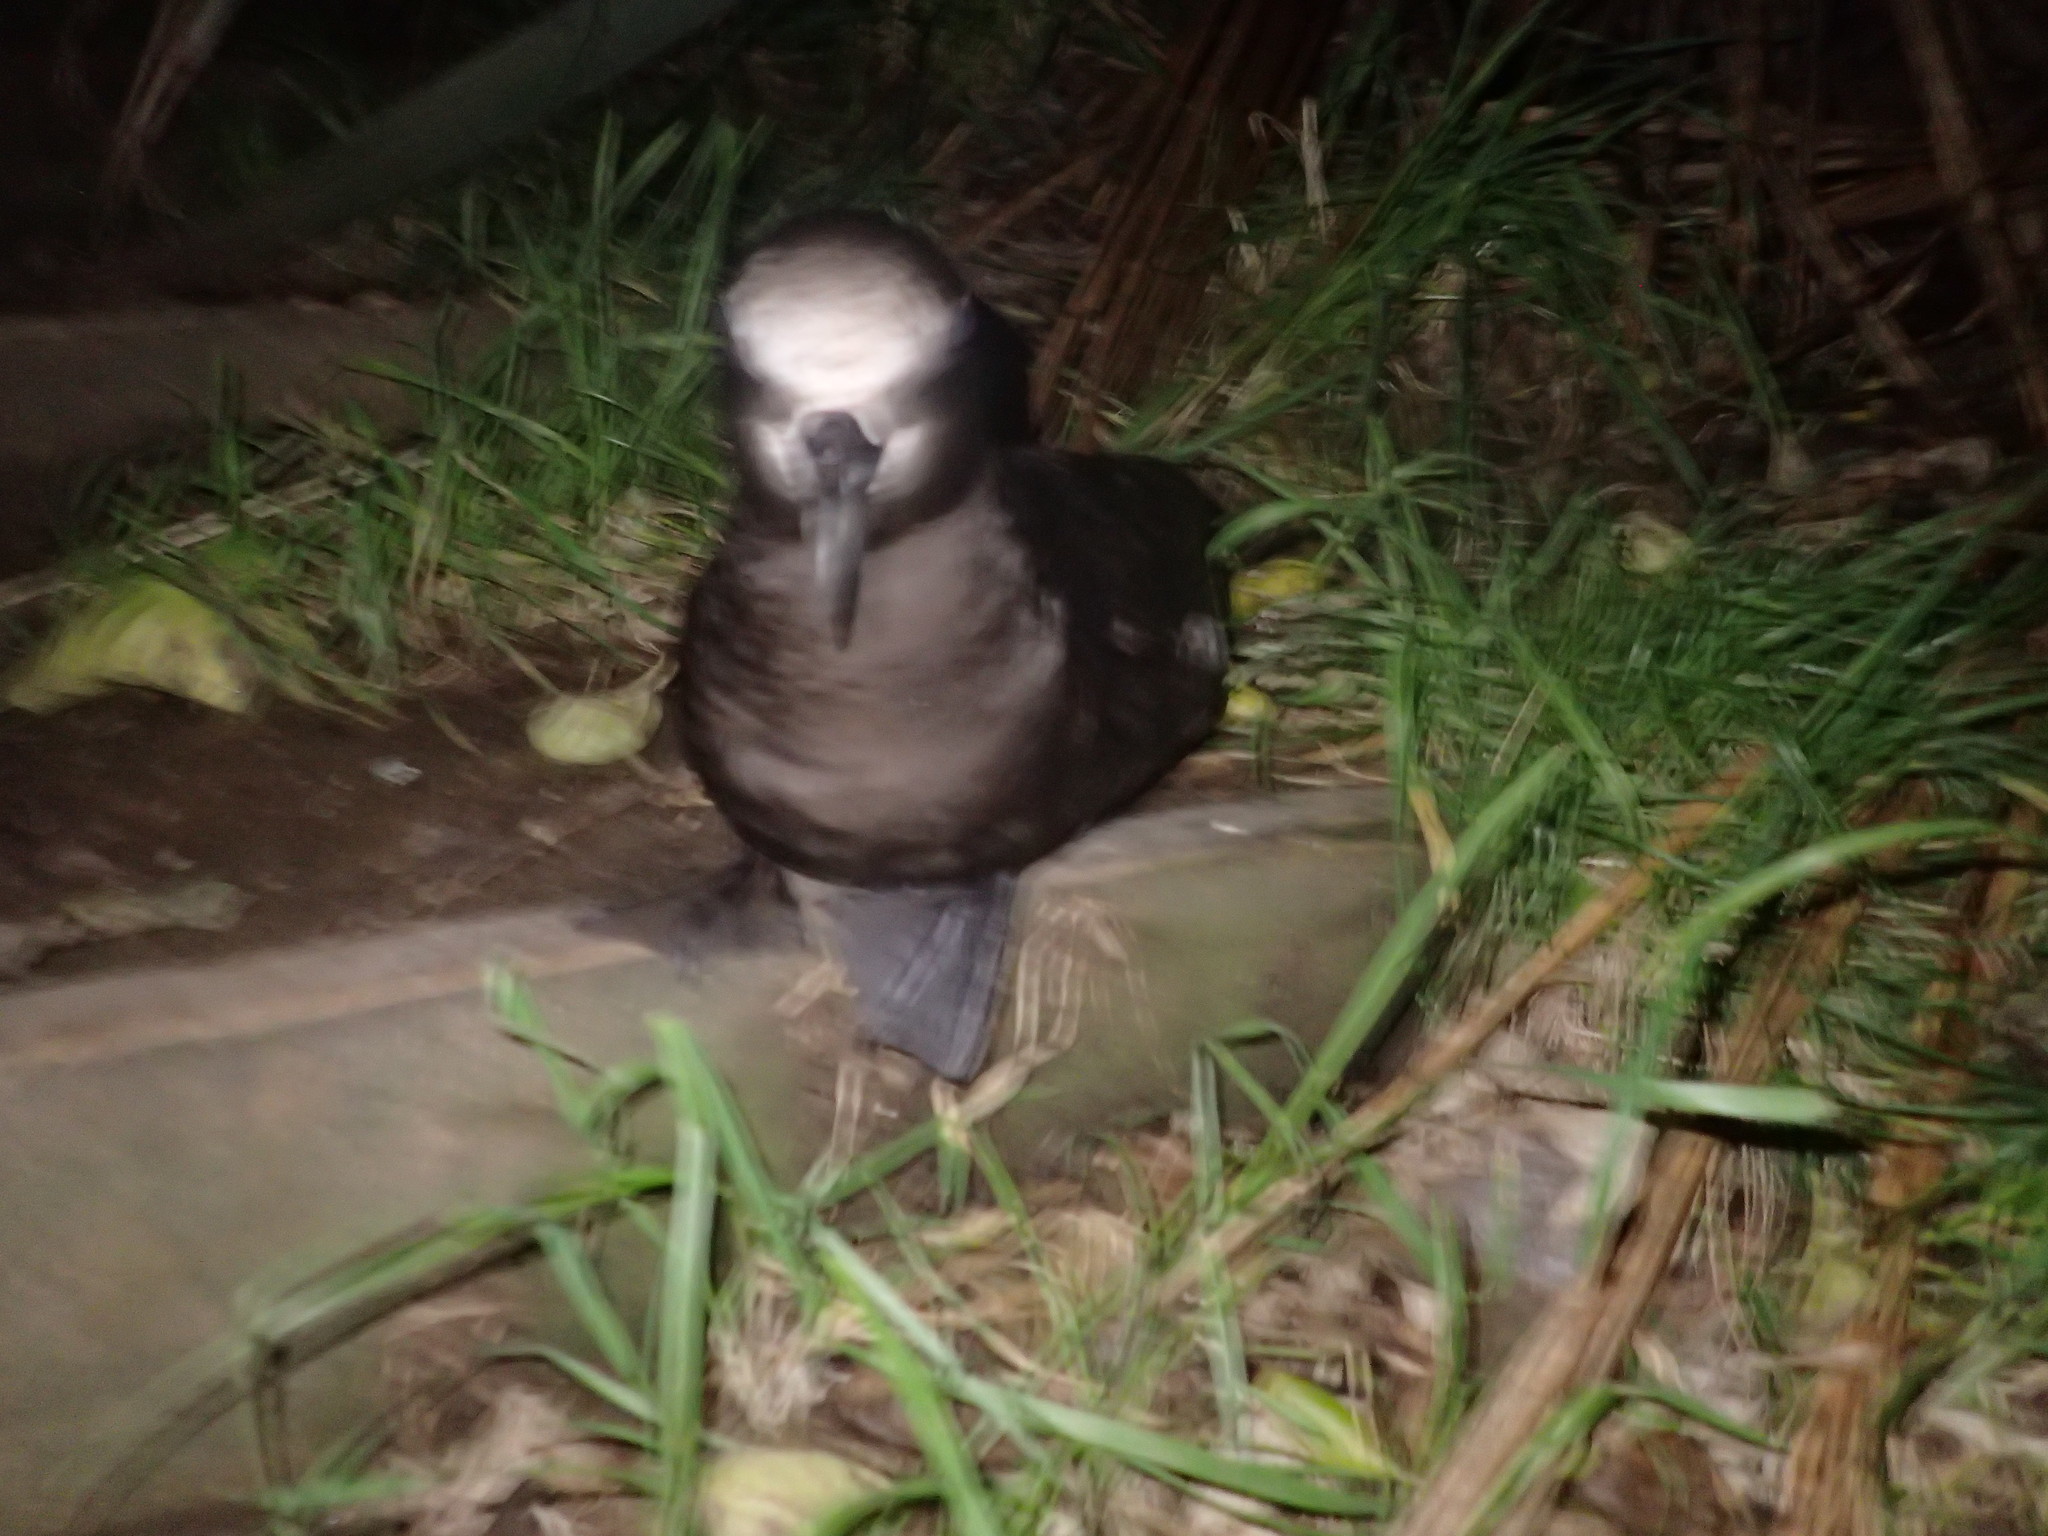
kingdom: Animalia
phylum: Chordata
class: Aves
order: Procellariiformes
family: Procellariidae
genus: Pterodroma
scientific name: Pterodroma macroptera
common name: Great-winged petrel
